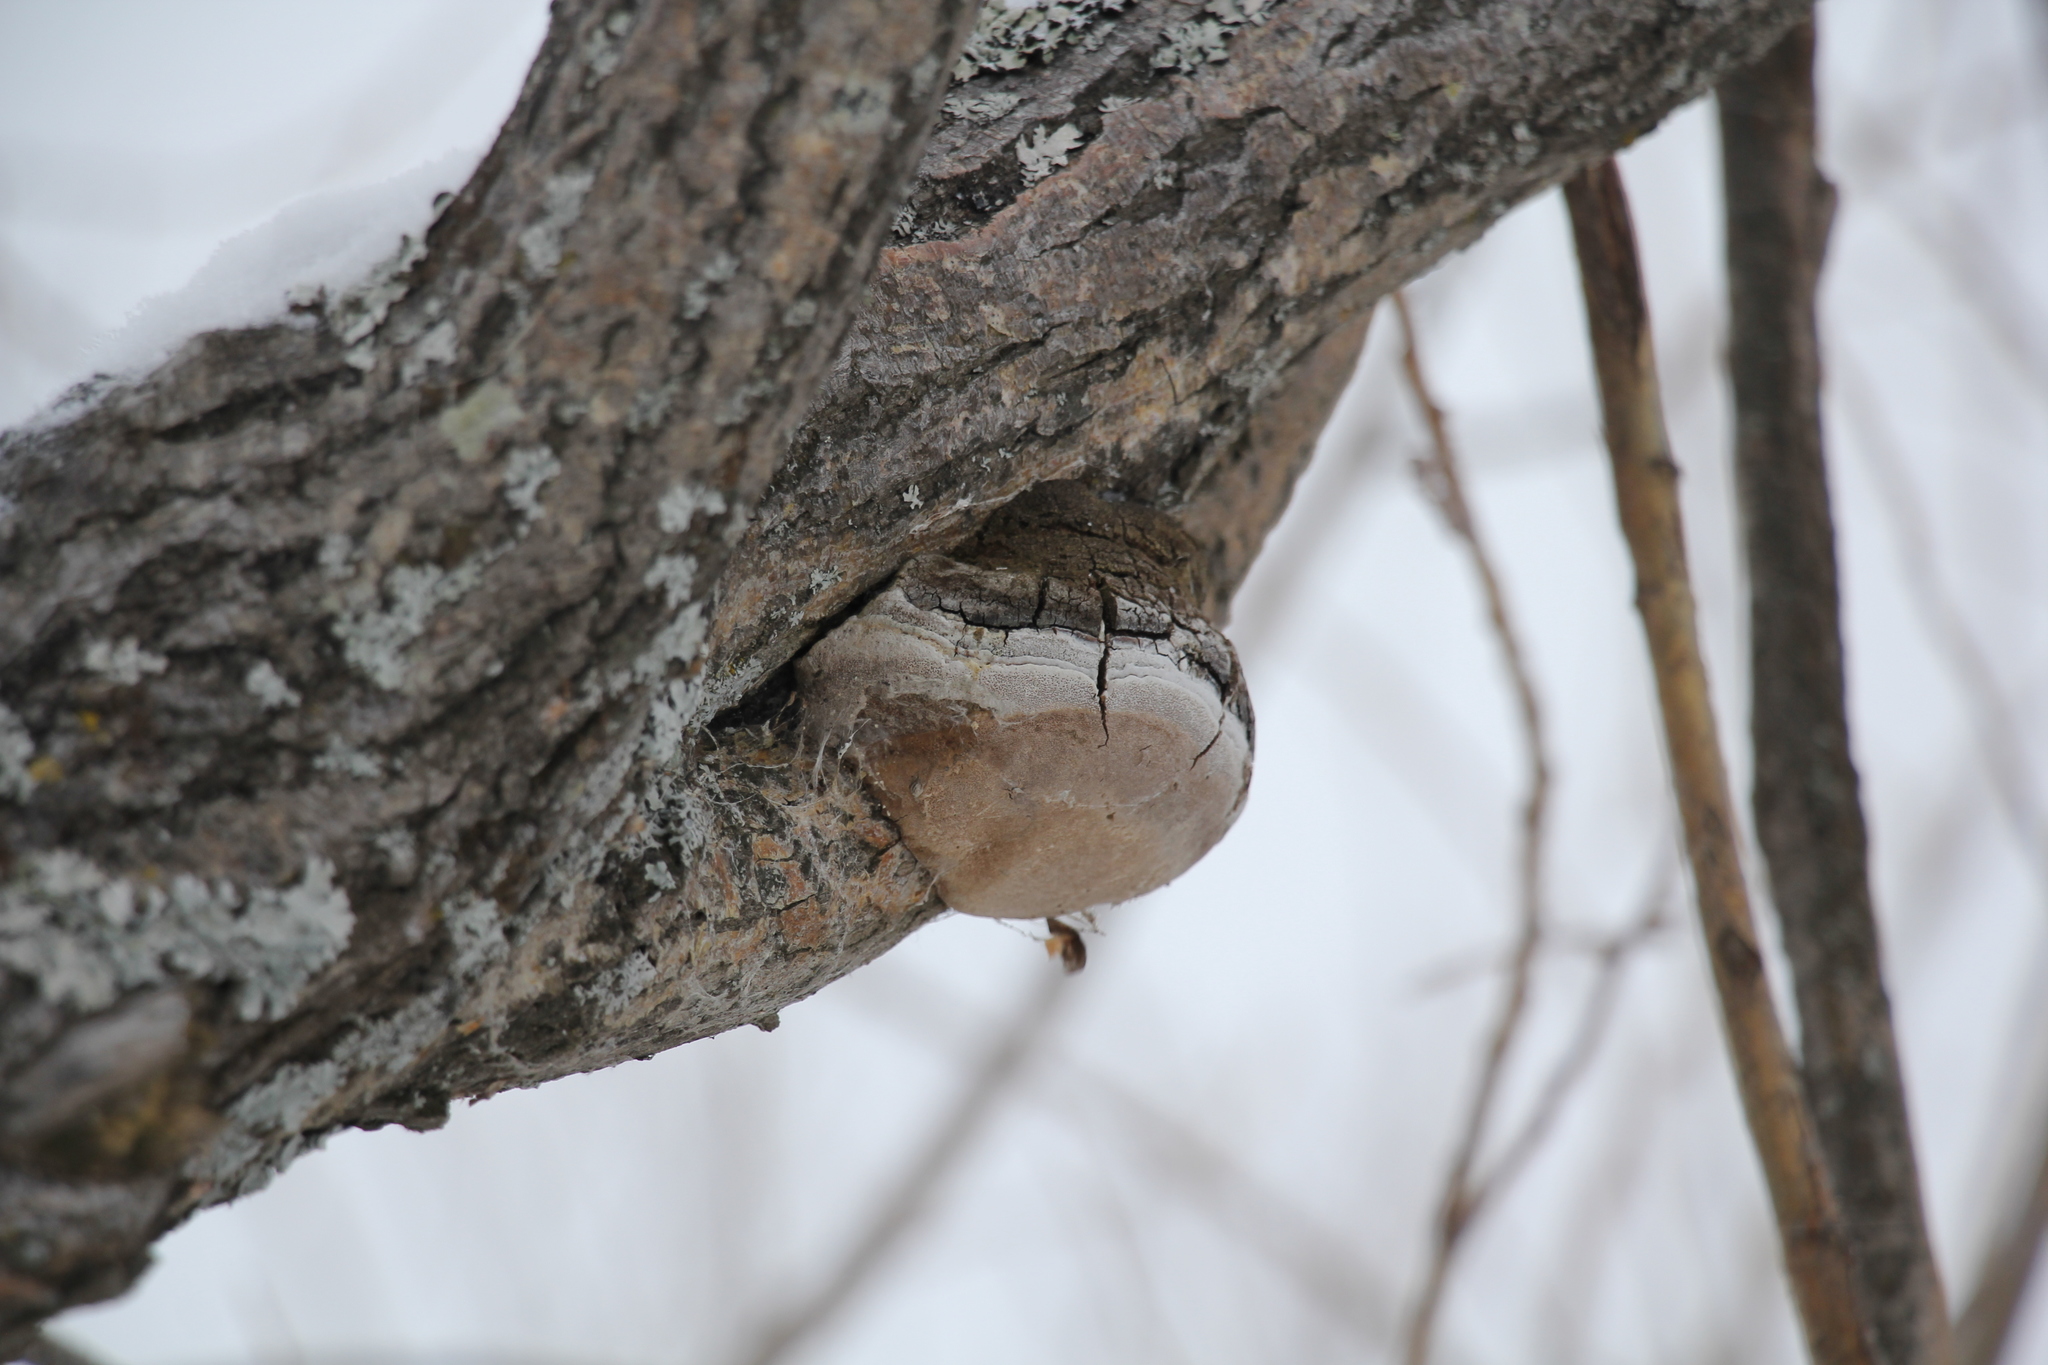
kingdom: Fungi
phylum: Basidiomycota
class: Agaricomycetes
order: Hymenochaetales
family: Hymenochaetaceae
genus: Phellinus
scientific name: Phellinus igniarius
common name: Willow bracket
